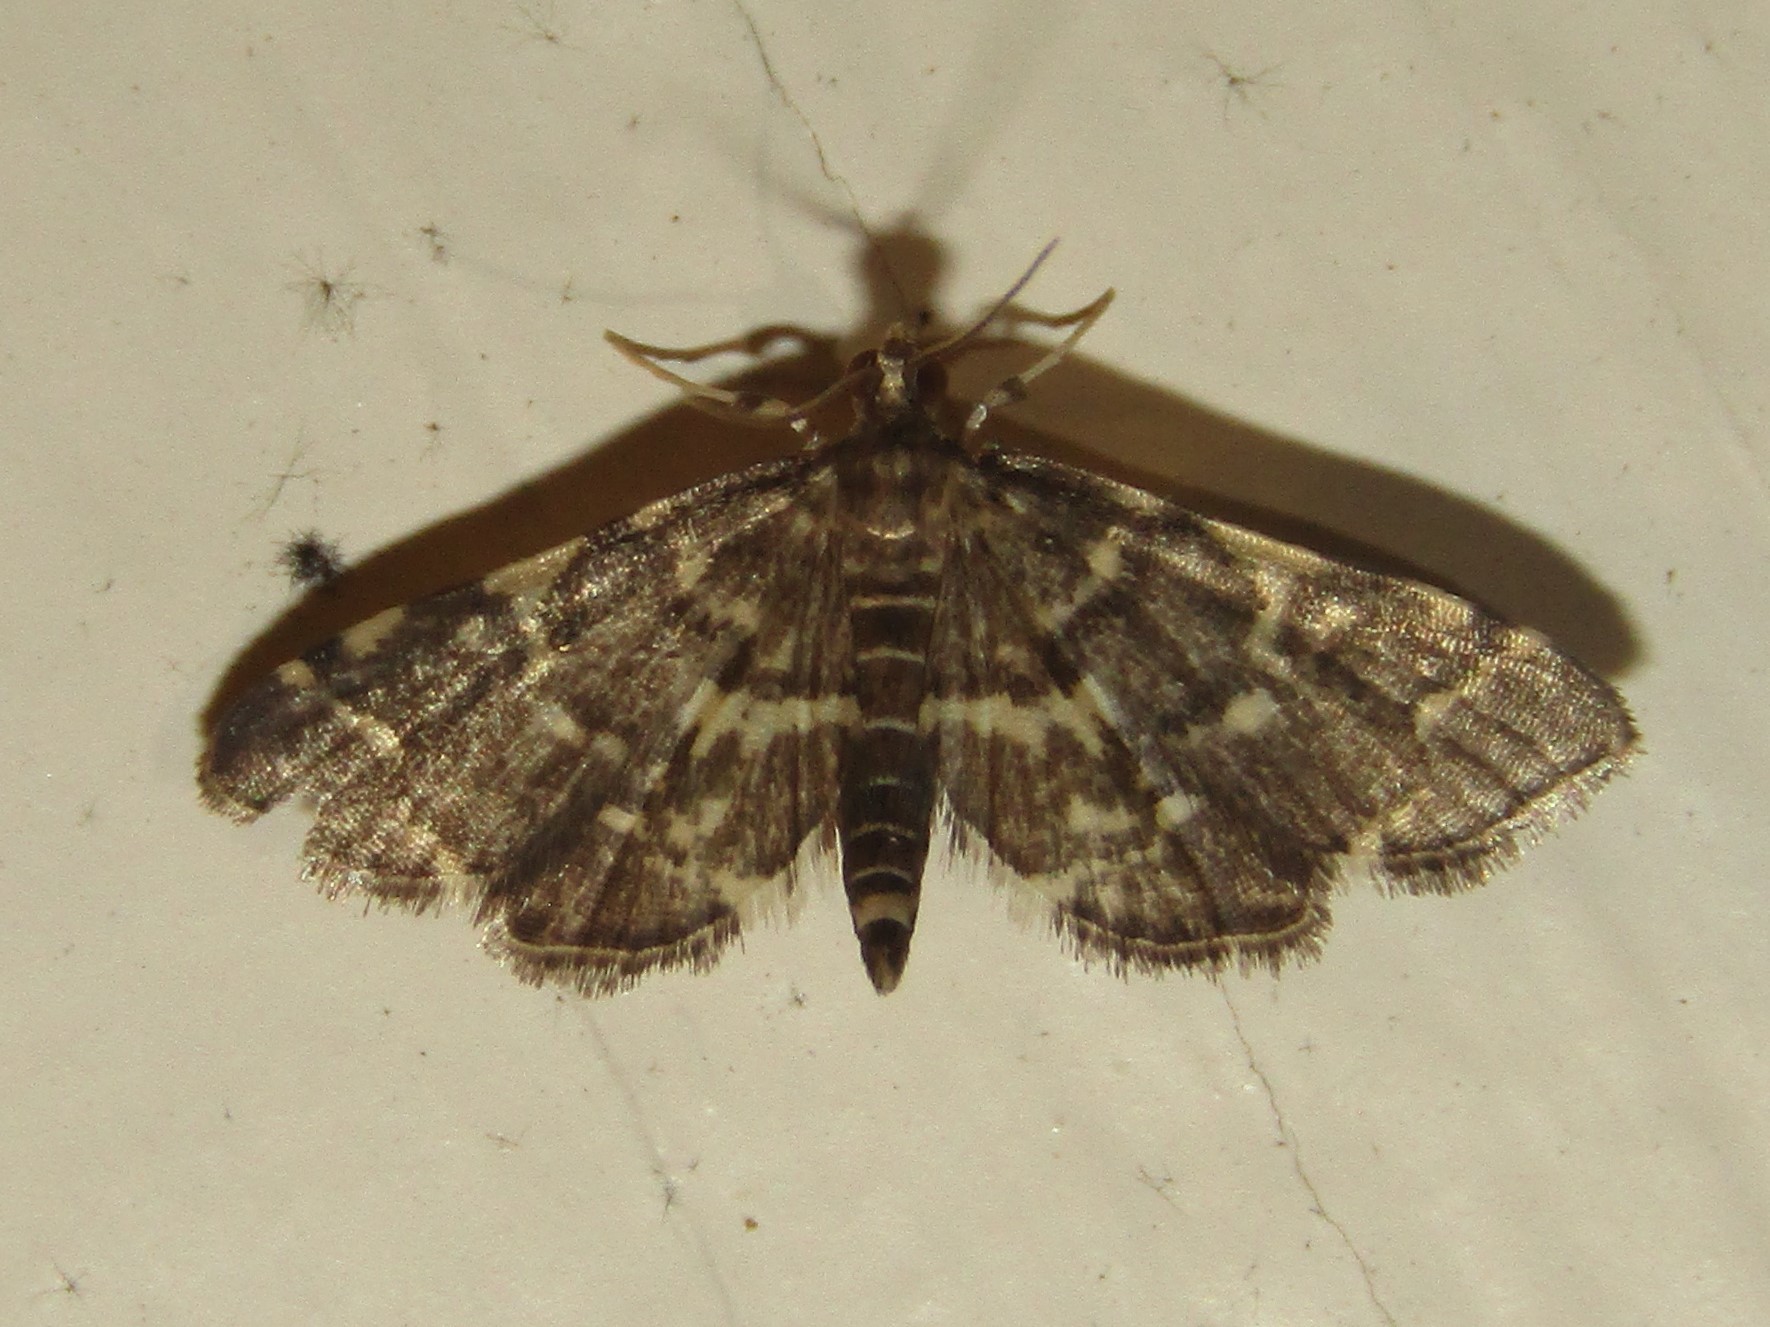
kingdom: Animalia
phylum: Arthropoda
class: Insecta
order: Lepidoptera
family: Crambidae
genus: Anageshna
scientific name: Anageshna primordialis
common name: Yellow-spotted webworm moth
